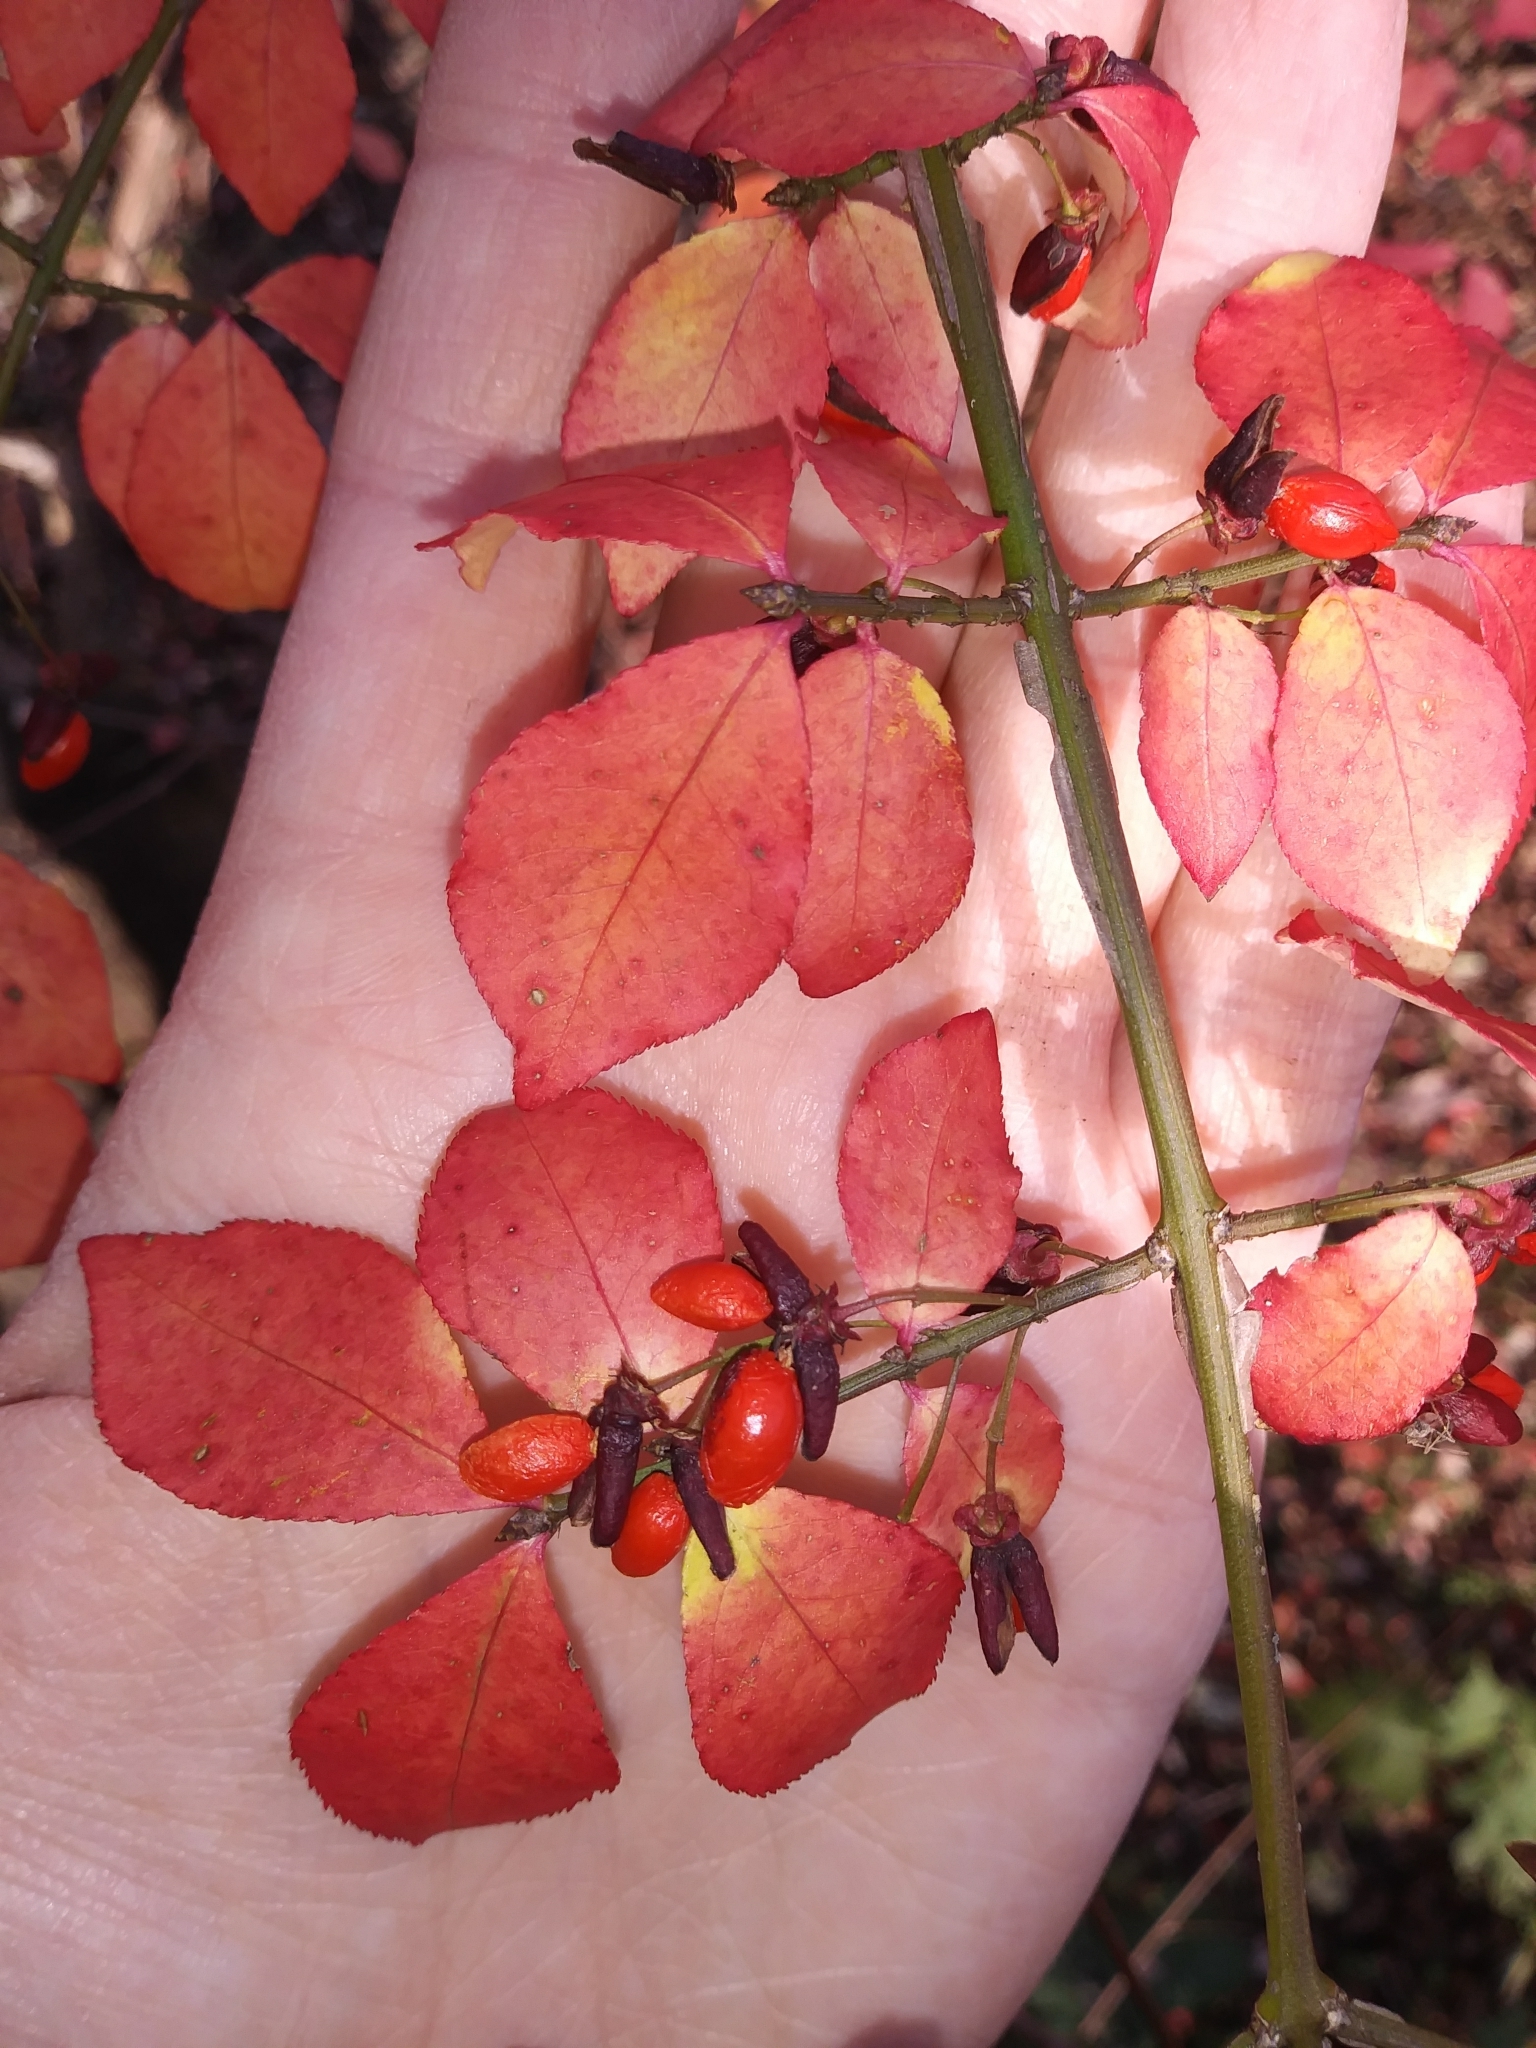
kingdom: Plantae
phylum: Tracheophyta
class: Magnoliopsida
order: Celastrales
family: Celastraceae
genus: Euonymus
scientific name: Euonymus alatus
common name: Winged euonymus
